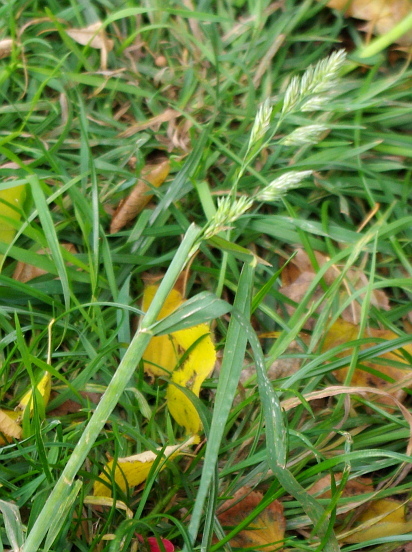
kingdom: Plantae
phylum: Tracheophyta
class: Liliopsida
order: Poales
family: Poaceae
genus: Dactylis
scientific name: Dactylis glomerata
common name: Orchardgrass
